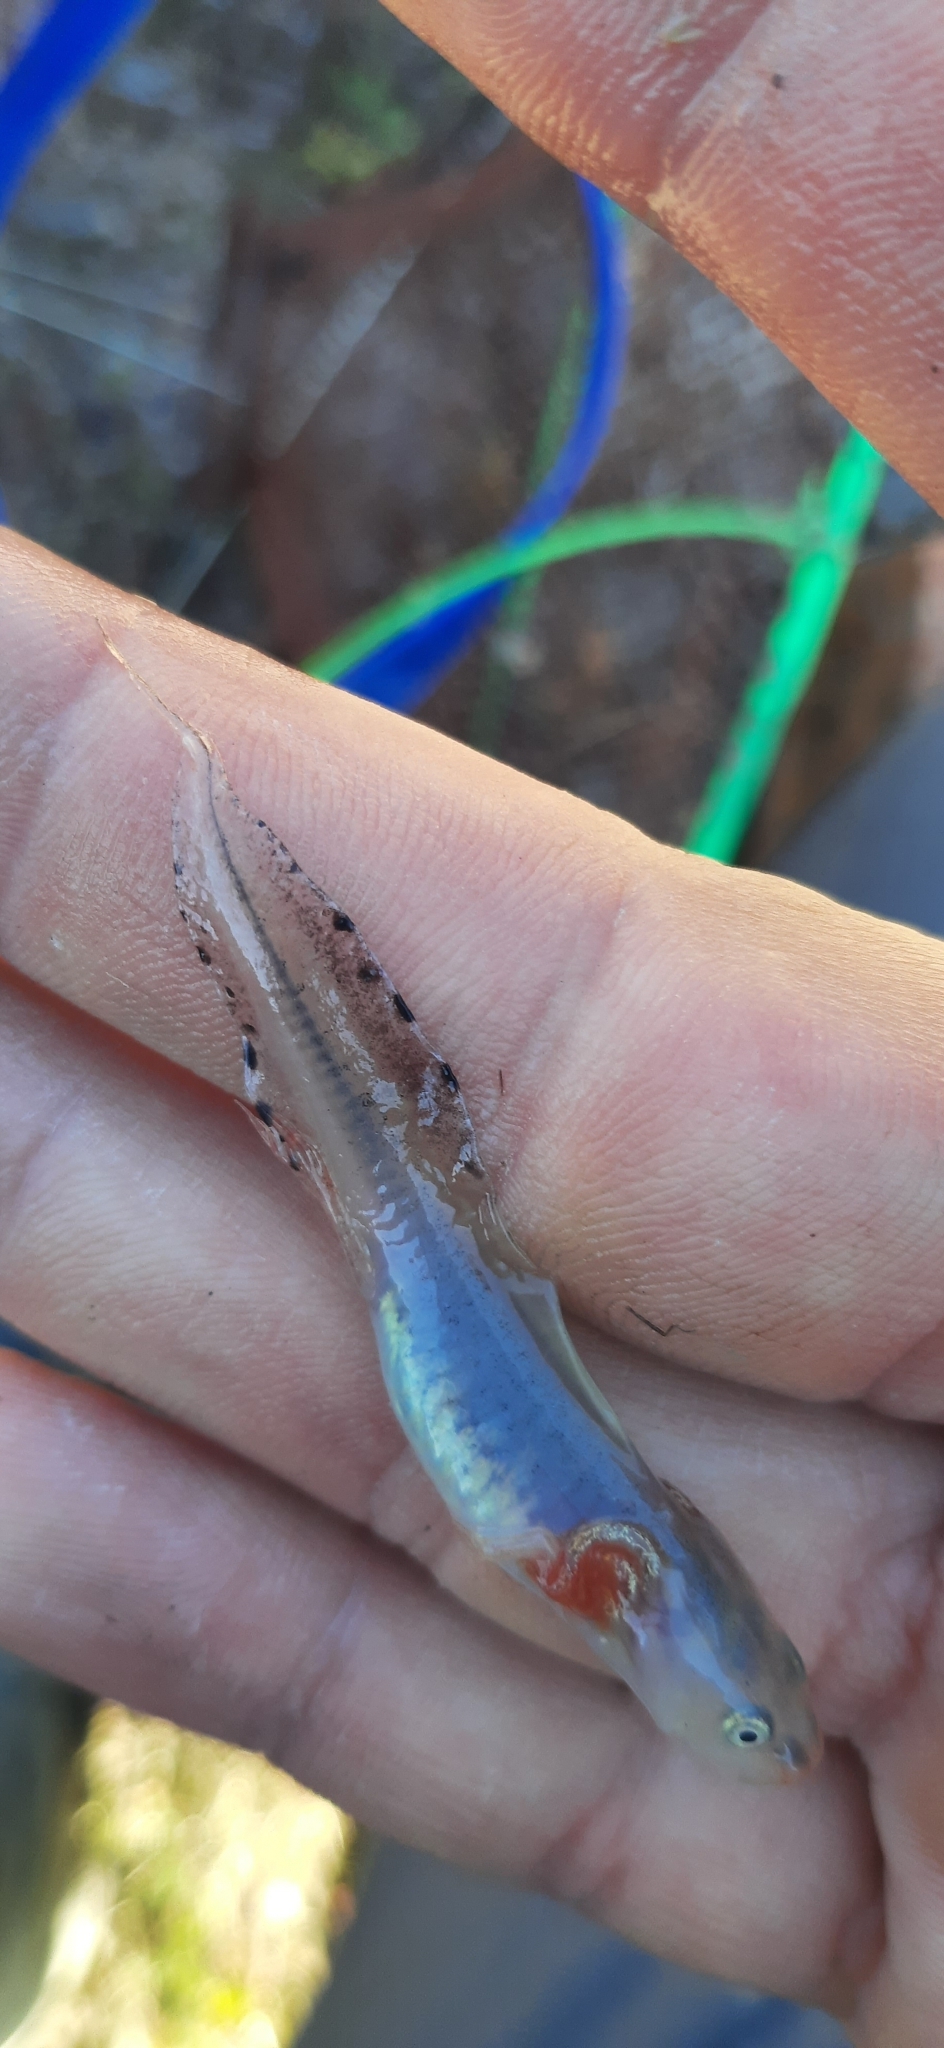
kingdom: Animalia
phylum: Chordata
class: Amphibia
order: Caudata
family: Salamandridae
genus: Triturus
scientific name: Triturus cristatus
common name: Crested newt
